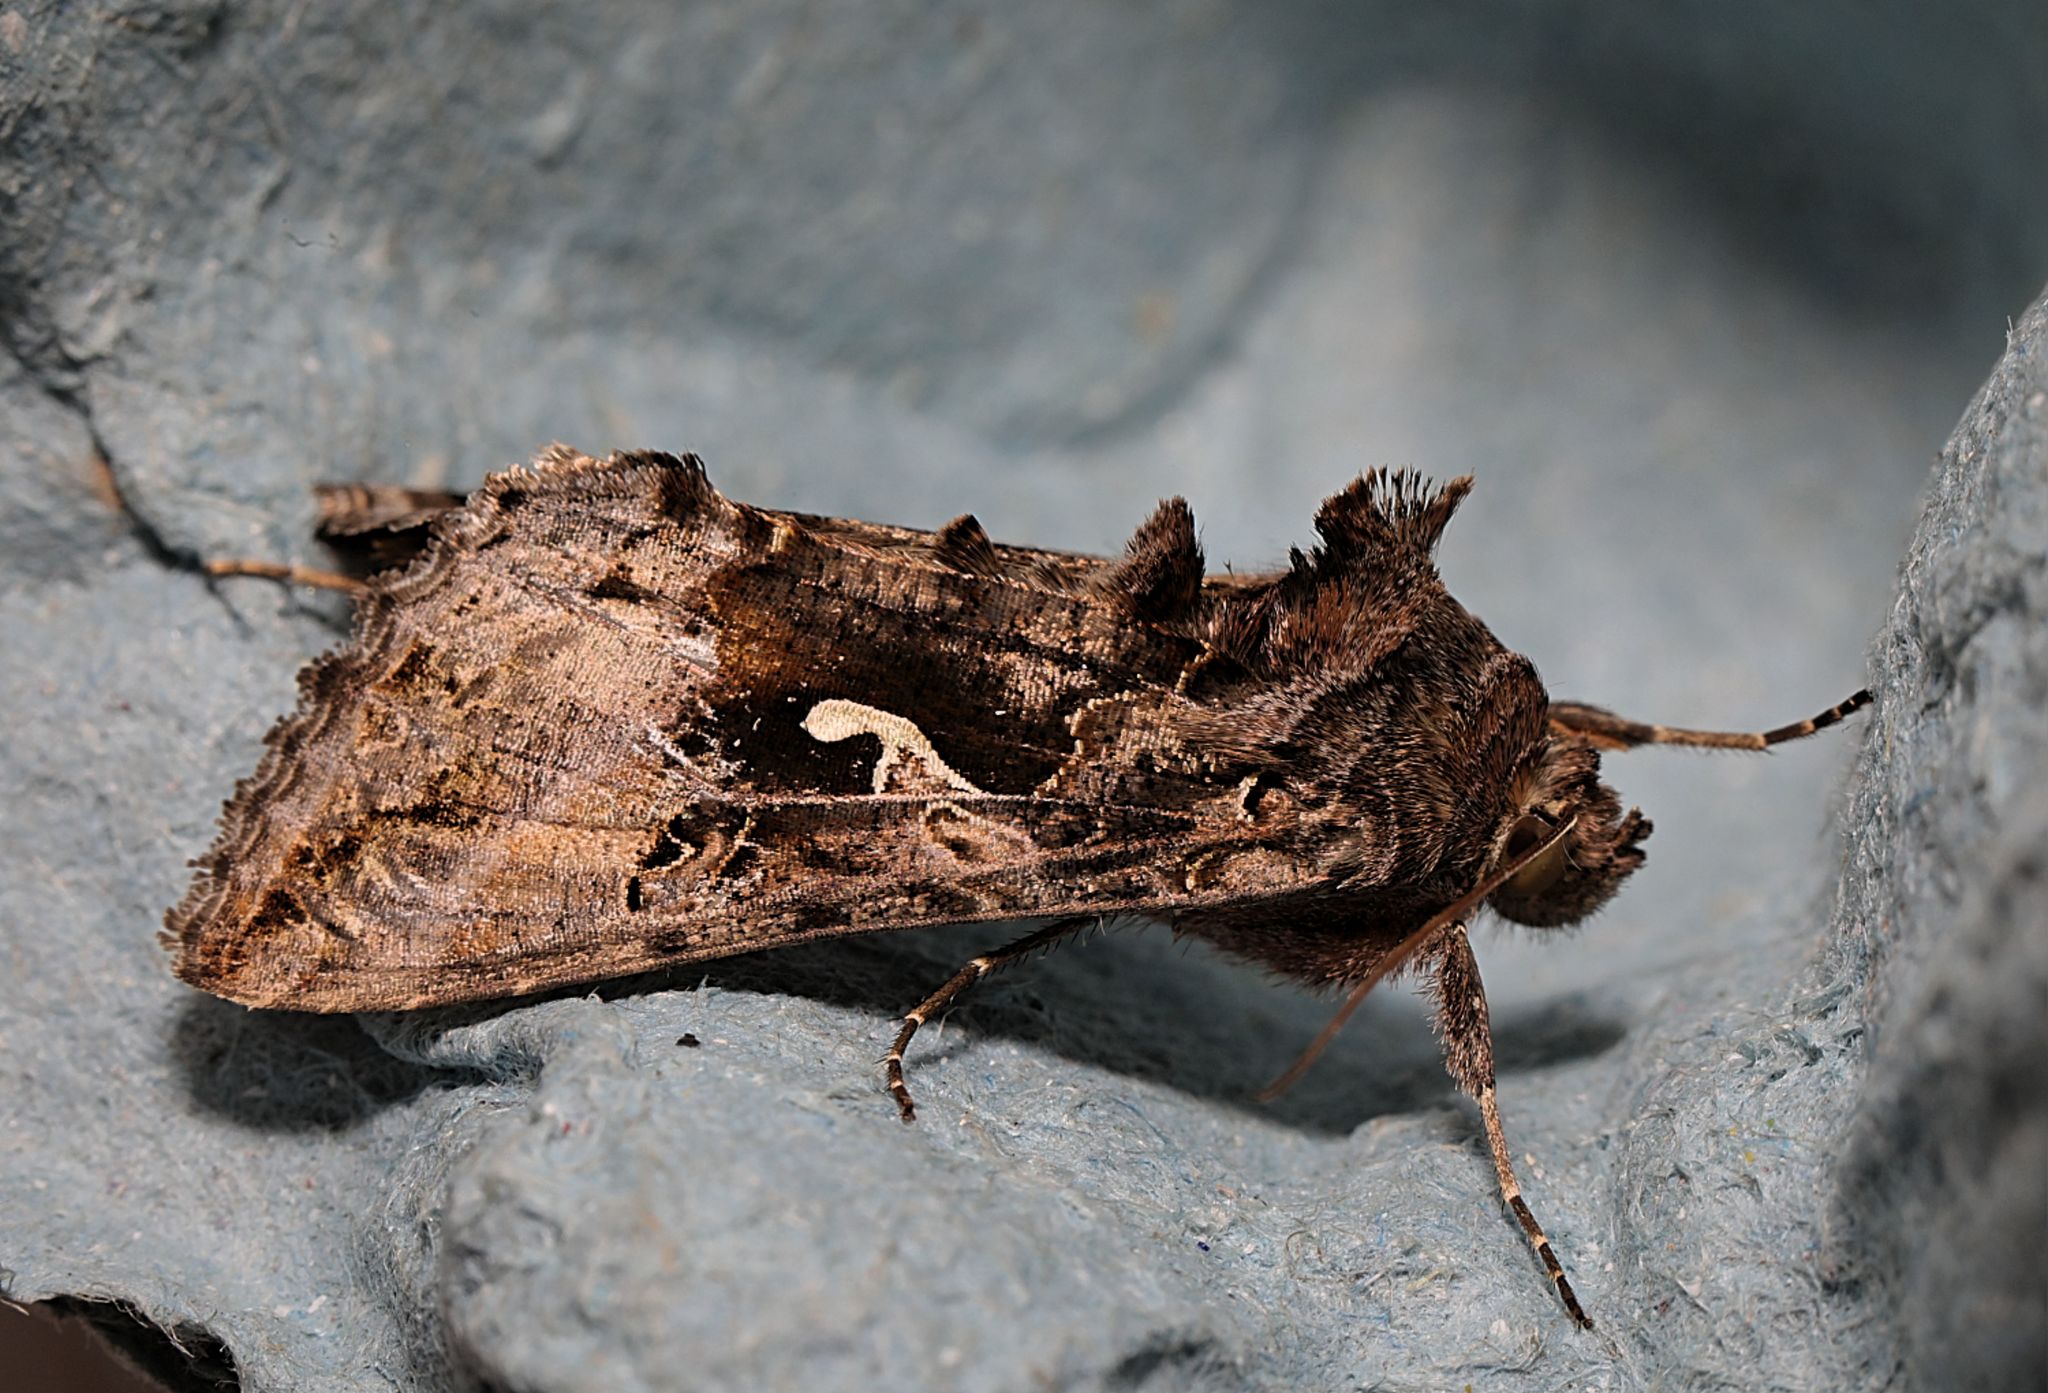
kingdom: Animalia
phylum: Arthropoda
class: Insecta
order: Lepidoptera
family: Noctuidae
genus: Autographa
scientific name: Autographa gamma
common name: Silver y
